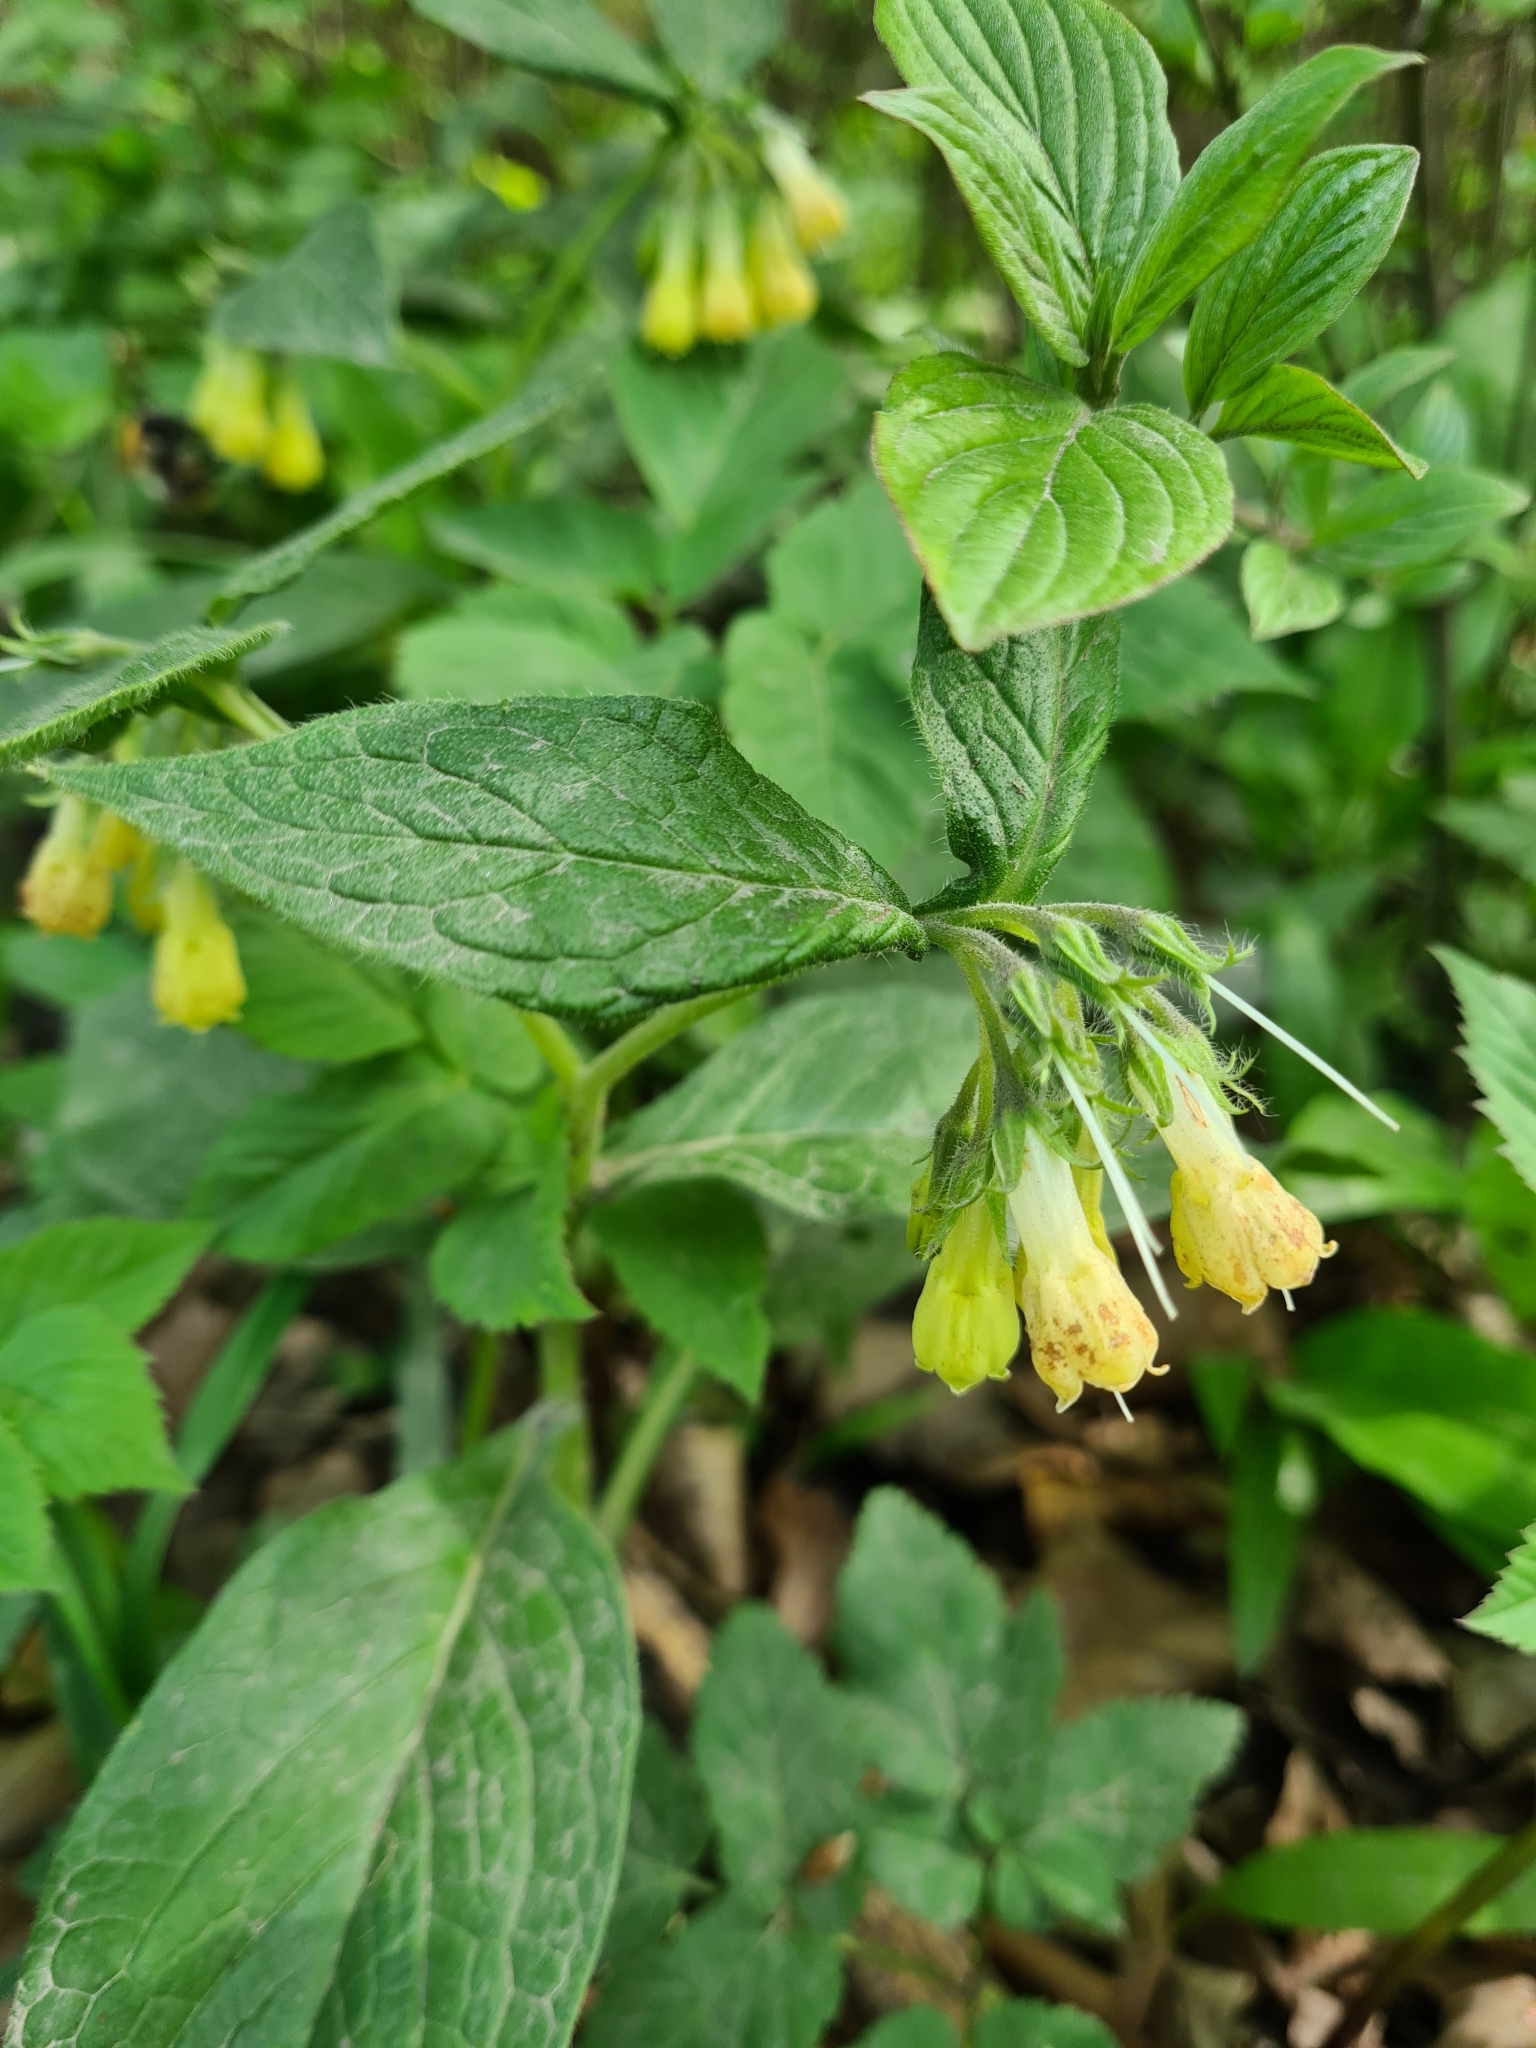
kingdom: Plantae
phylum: Tracheophyta
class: Magnoliopsida
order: Boraginales
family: Boraginaceae
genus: Symphytum
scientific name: Symphytum tuberosum
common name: Tuberous comfrey
